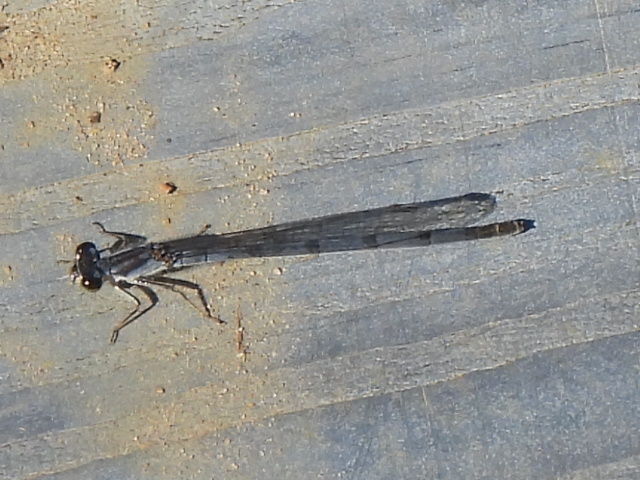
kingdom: Animalia
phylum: Arthropoda
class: Insecta
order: Odonata
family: Coenagrionidae
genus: Ischnura
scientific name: Ischnura posita
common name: Fragile forktail
